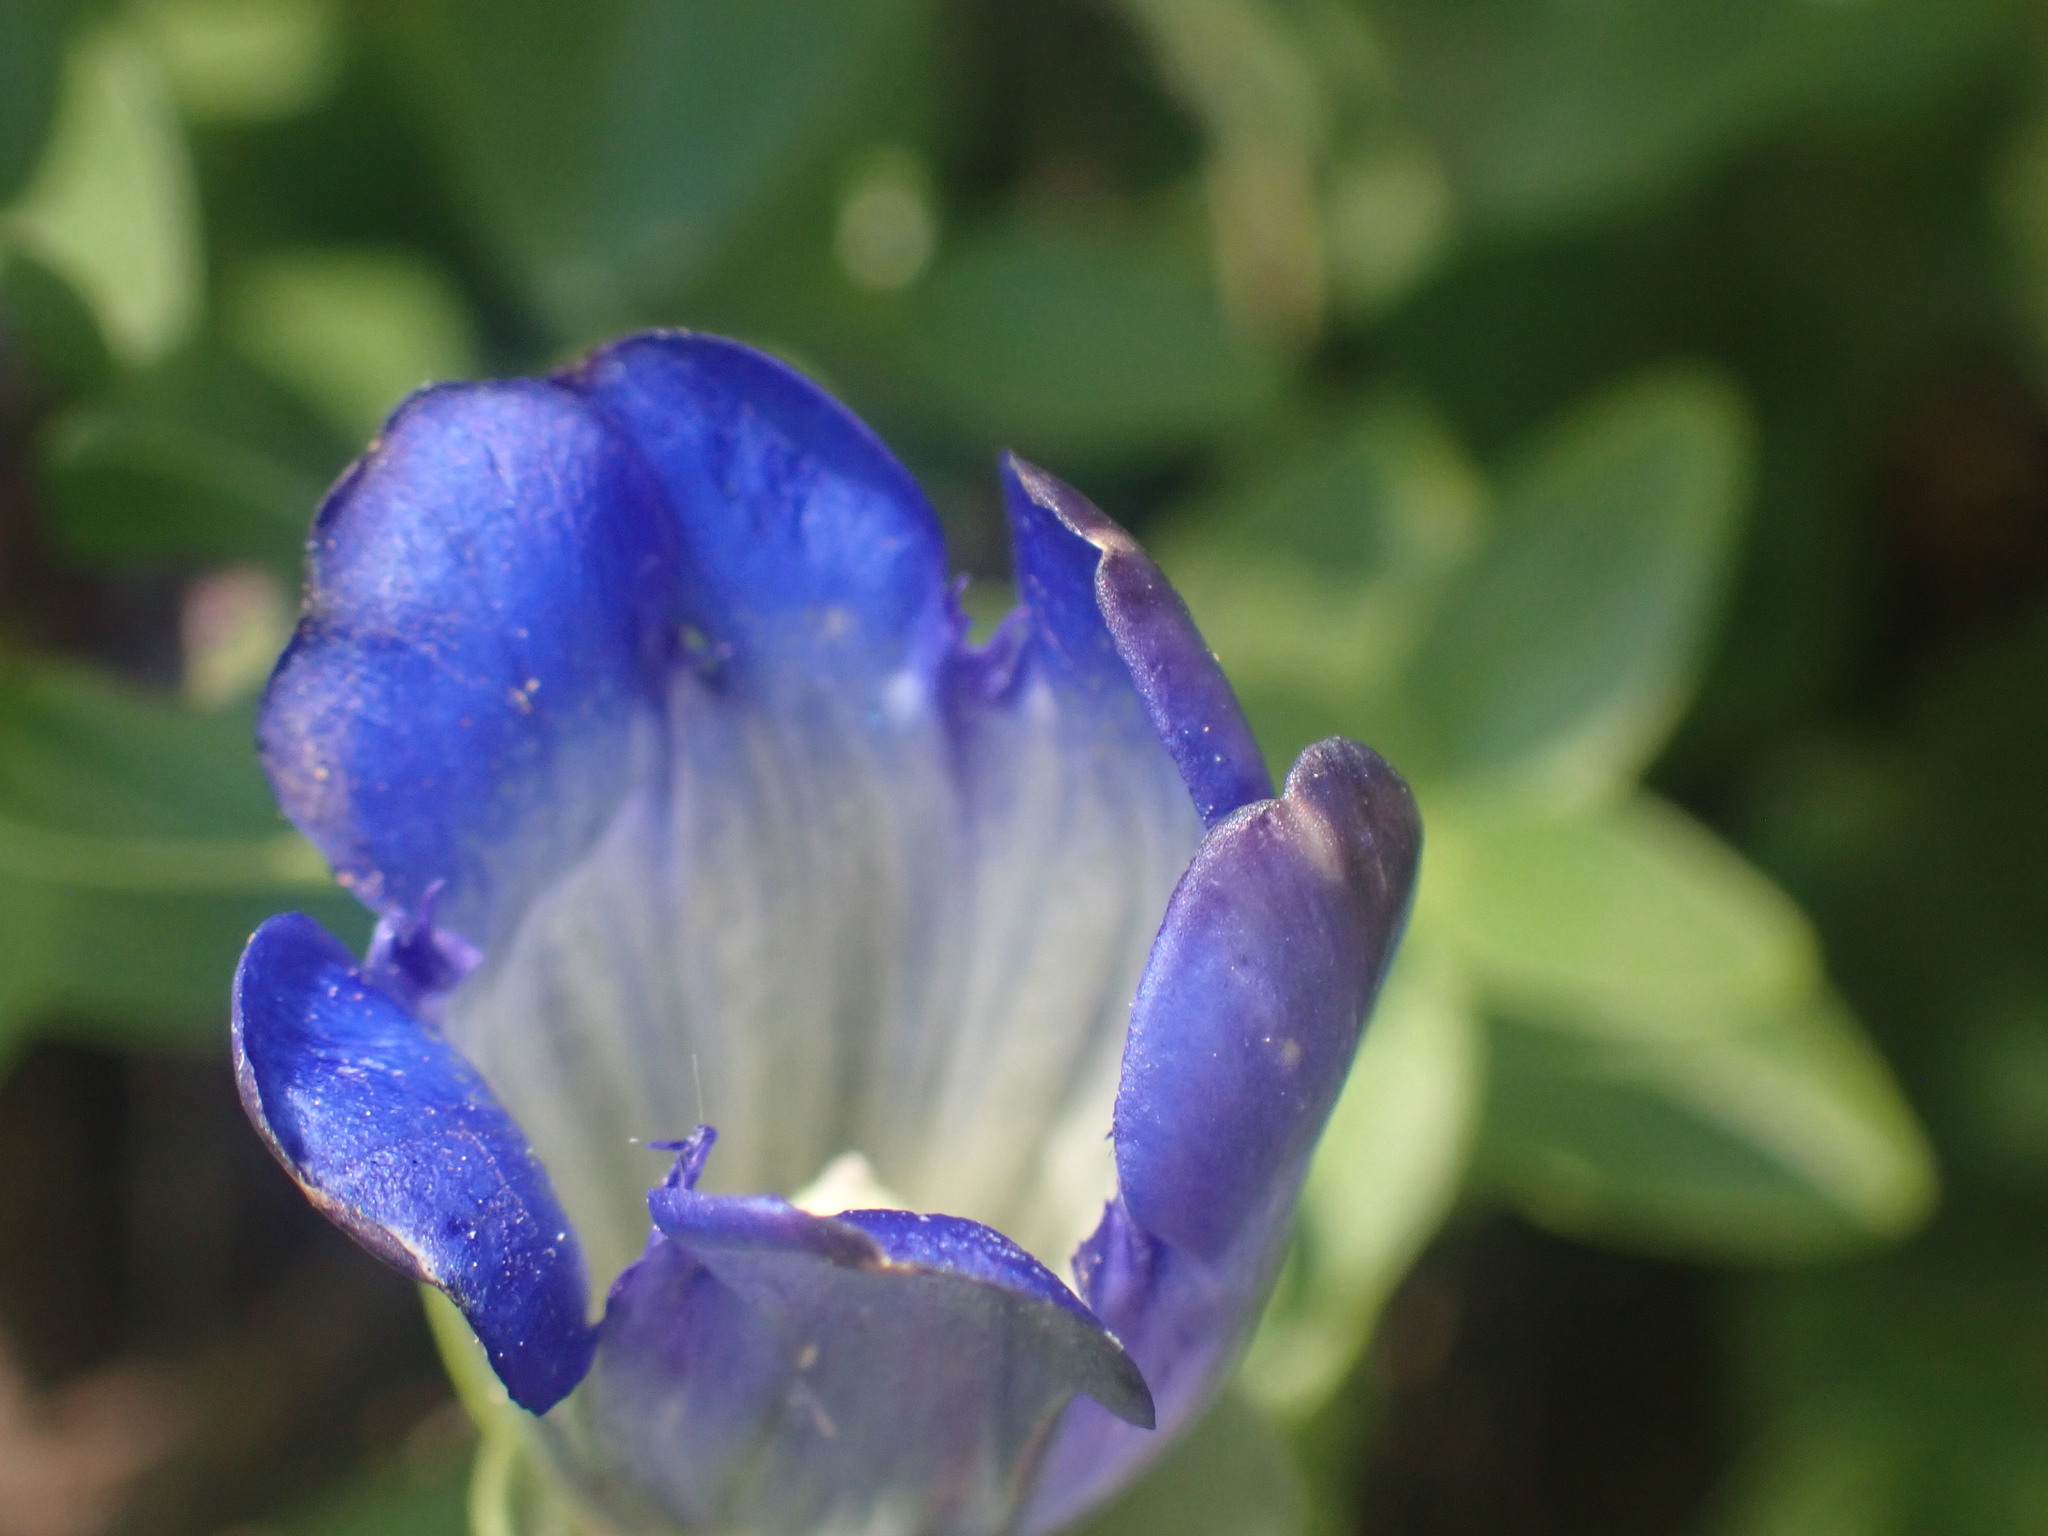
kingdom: Plantae
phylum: Tracheophyta
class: Magnoliopsida
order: Gentianales
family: Gentianaceae
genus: Gentiana
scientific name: Gentiana calycosa
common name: Rainier pleated gentian
